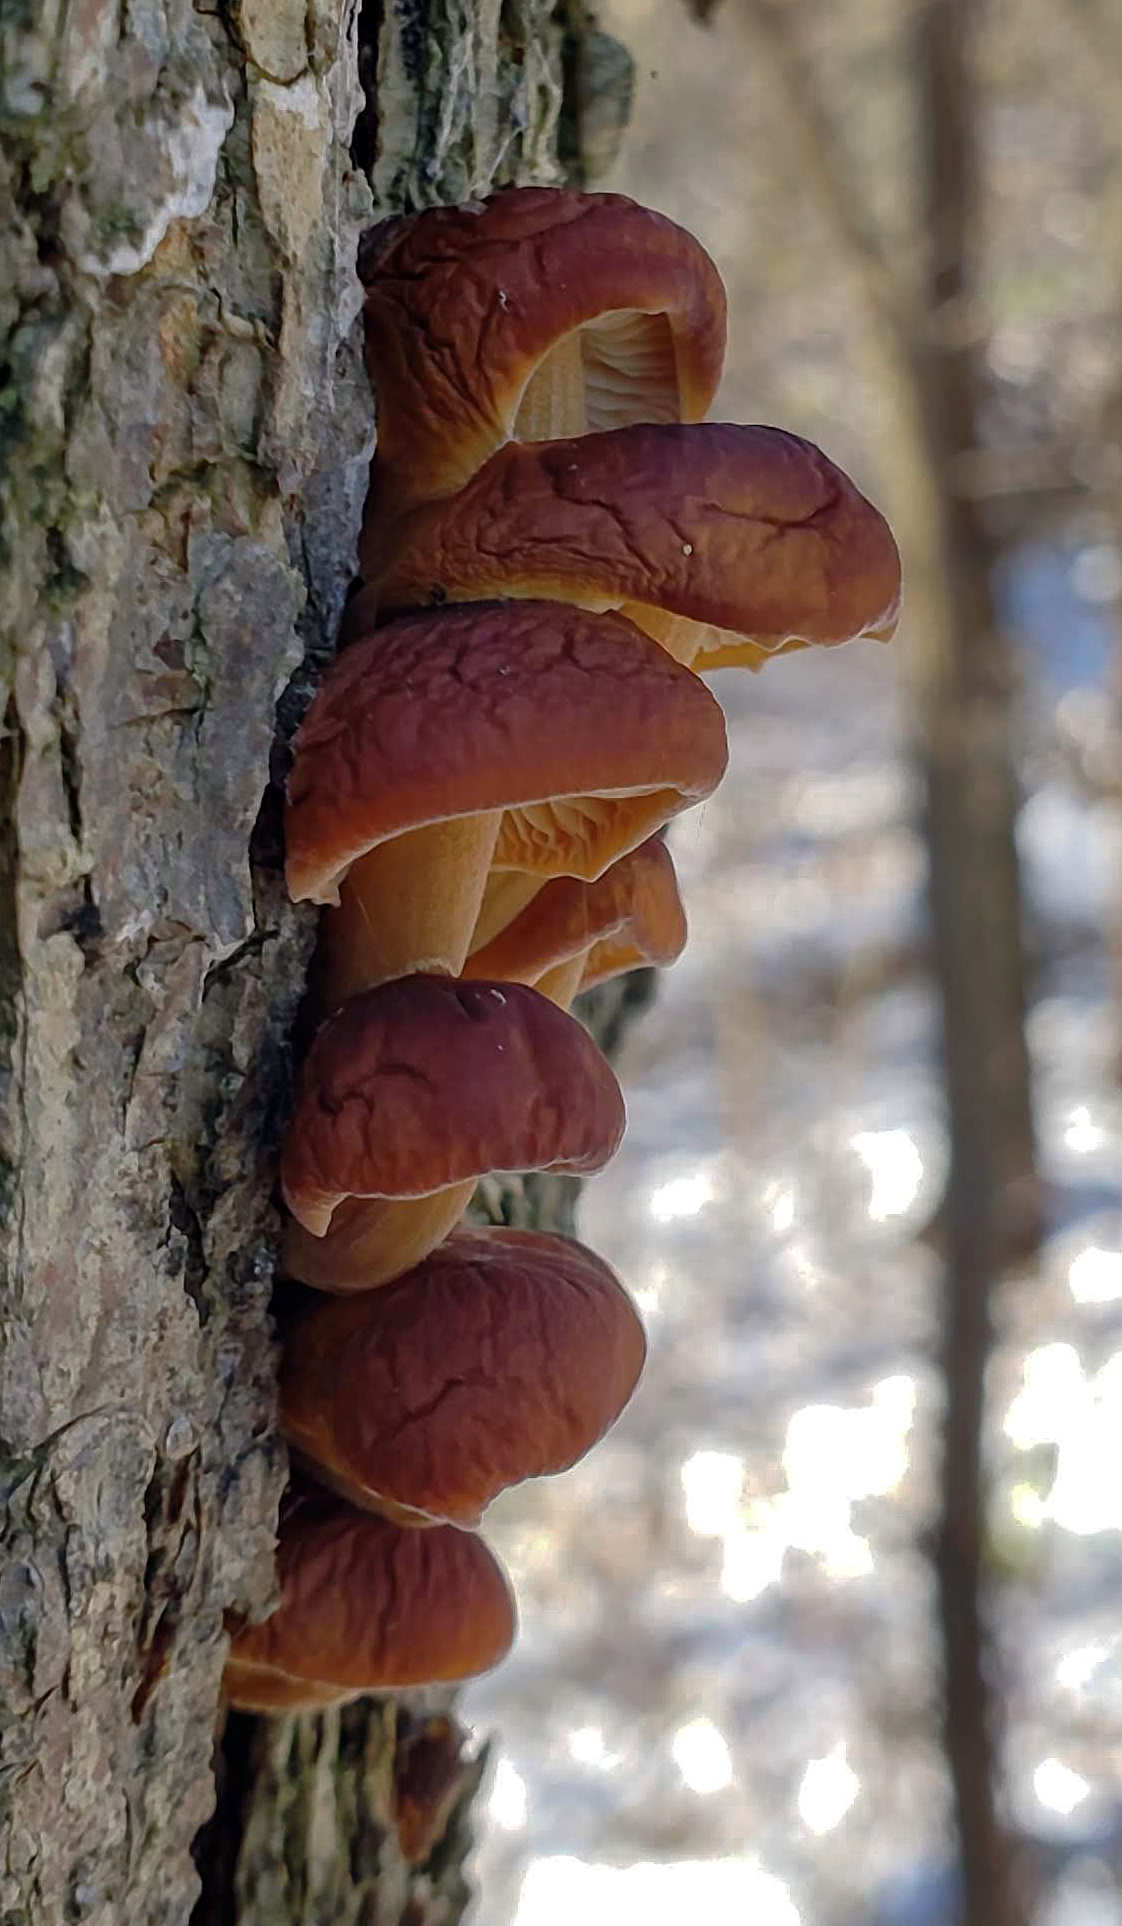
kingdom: Fungi
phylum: Basidiomycota
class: Agaricomycetes
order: Agaricales
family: Physalacriaceae
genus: Flammulina
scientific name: Flammulina velutipes
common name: Velvet shank
